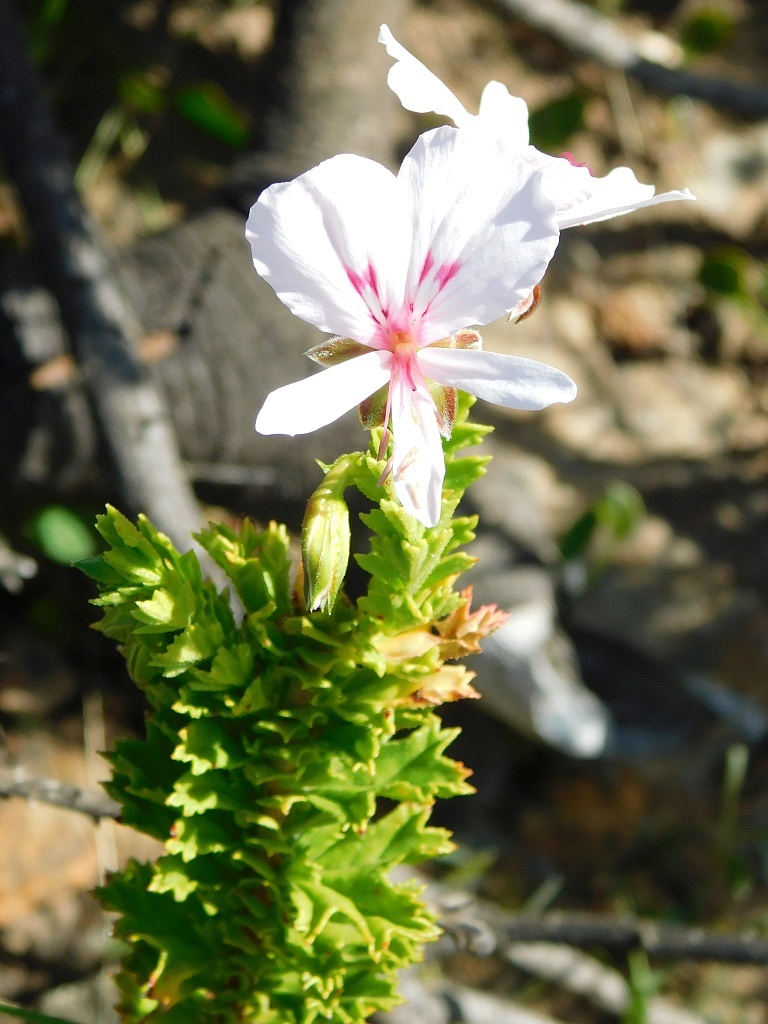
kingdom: Plantae
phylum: Tracheophyta
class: Magnoliopsida
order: Geraniales
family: Geraniaceae
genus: Pelargonium
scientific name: Pelargonium hermaniifolium
